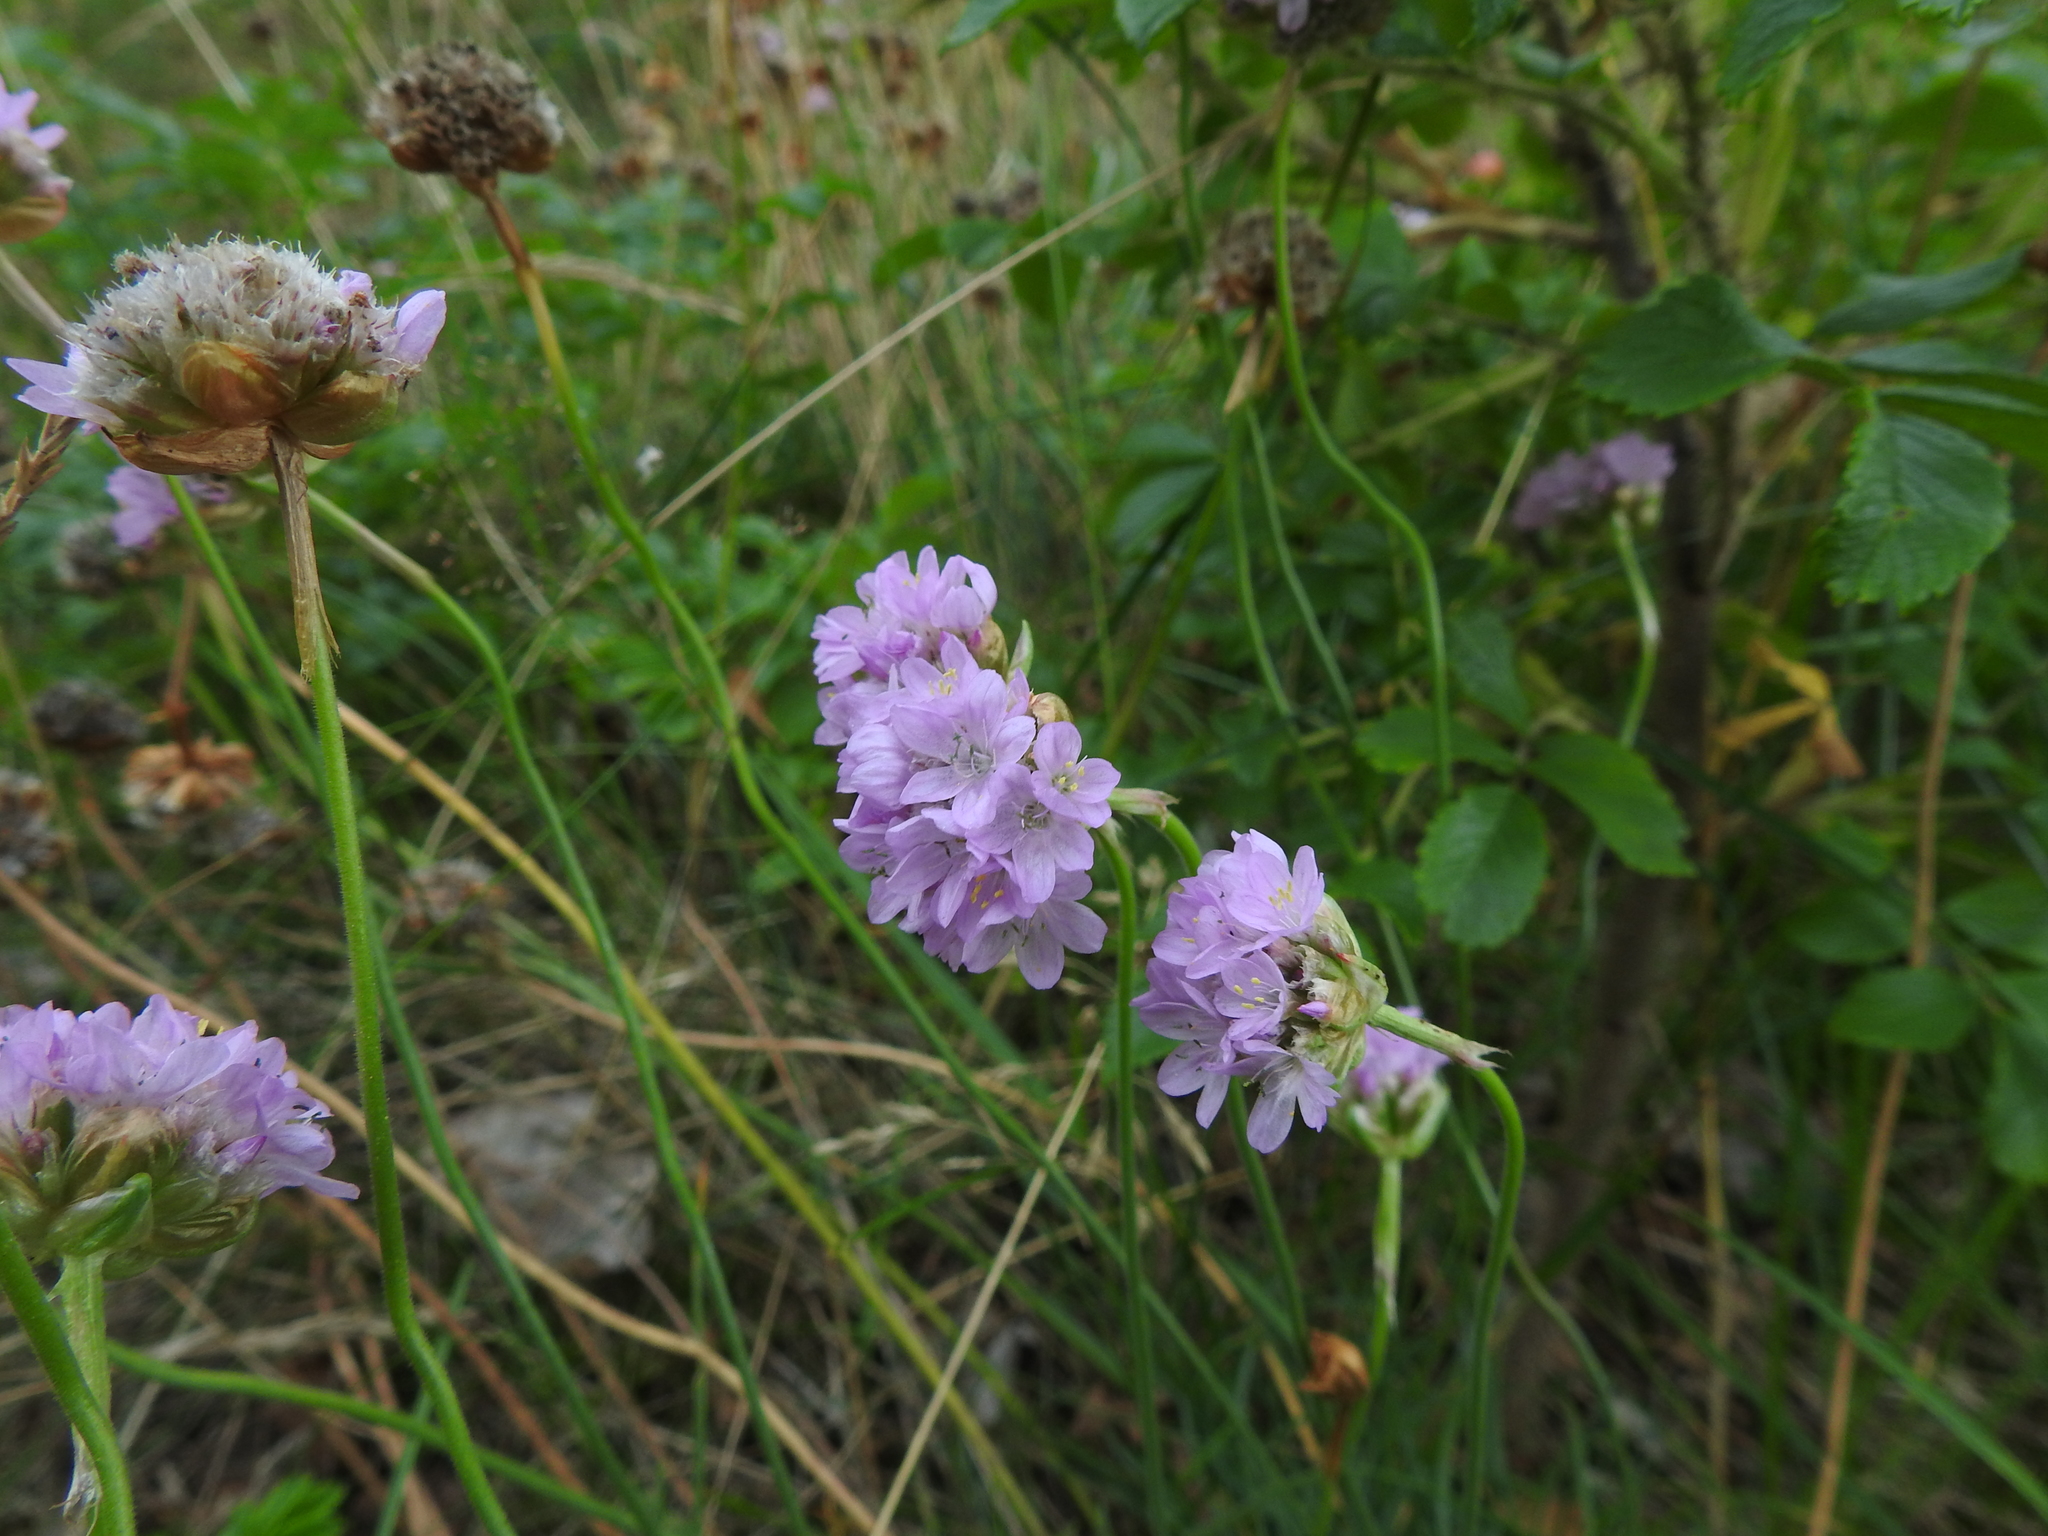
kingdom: Plantae
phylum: Tracheophyta
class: Magnoliopsida
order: Caryophyllales
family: Plumbaginaceae
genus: Armeria
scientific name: Armeria maritima
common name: Thrift
